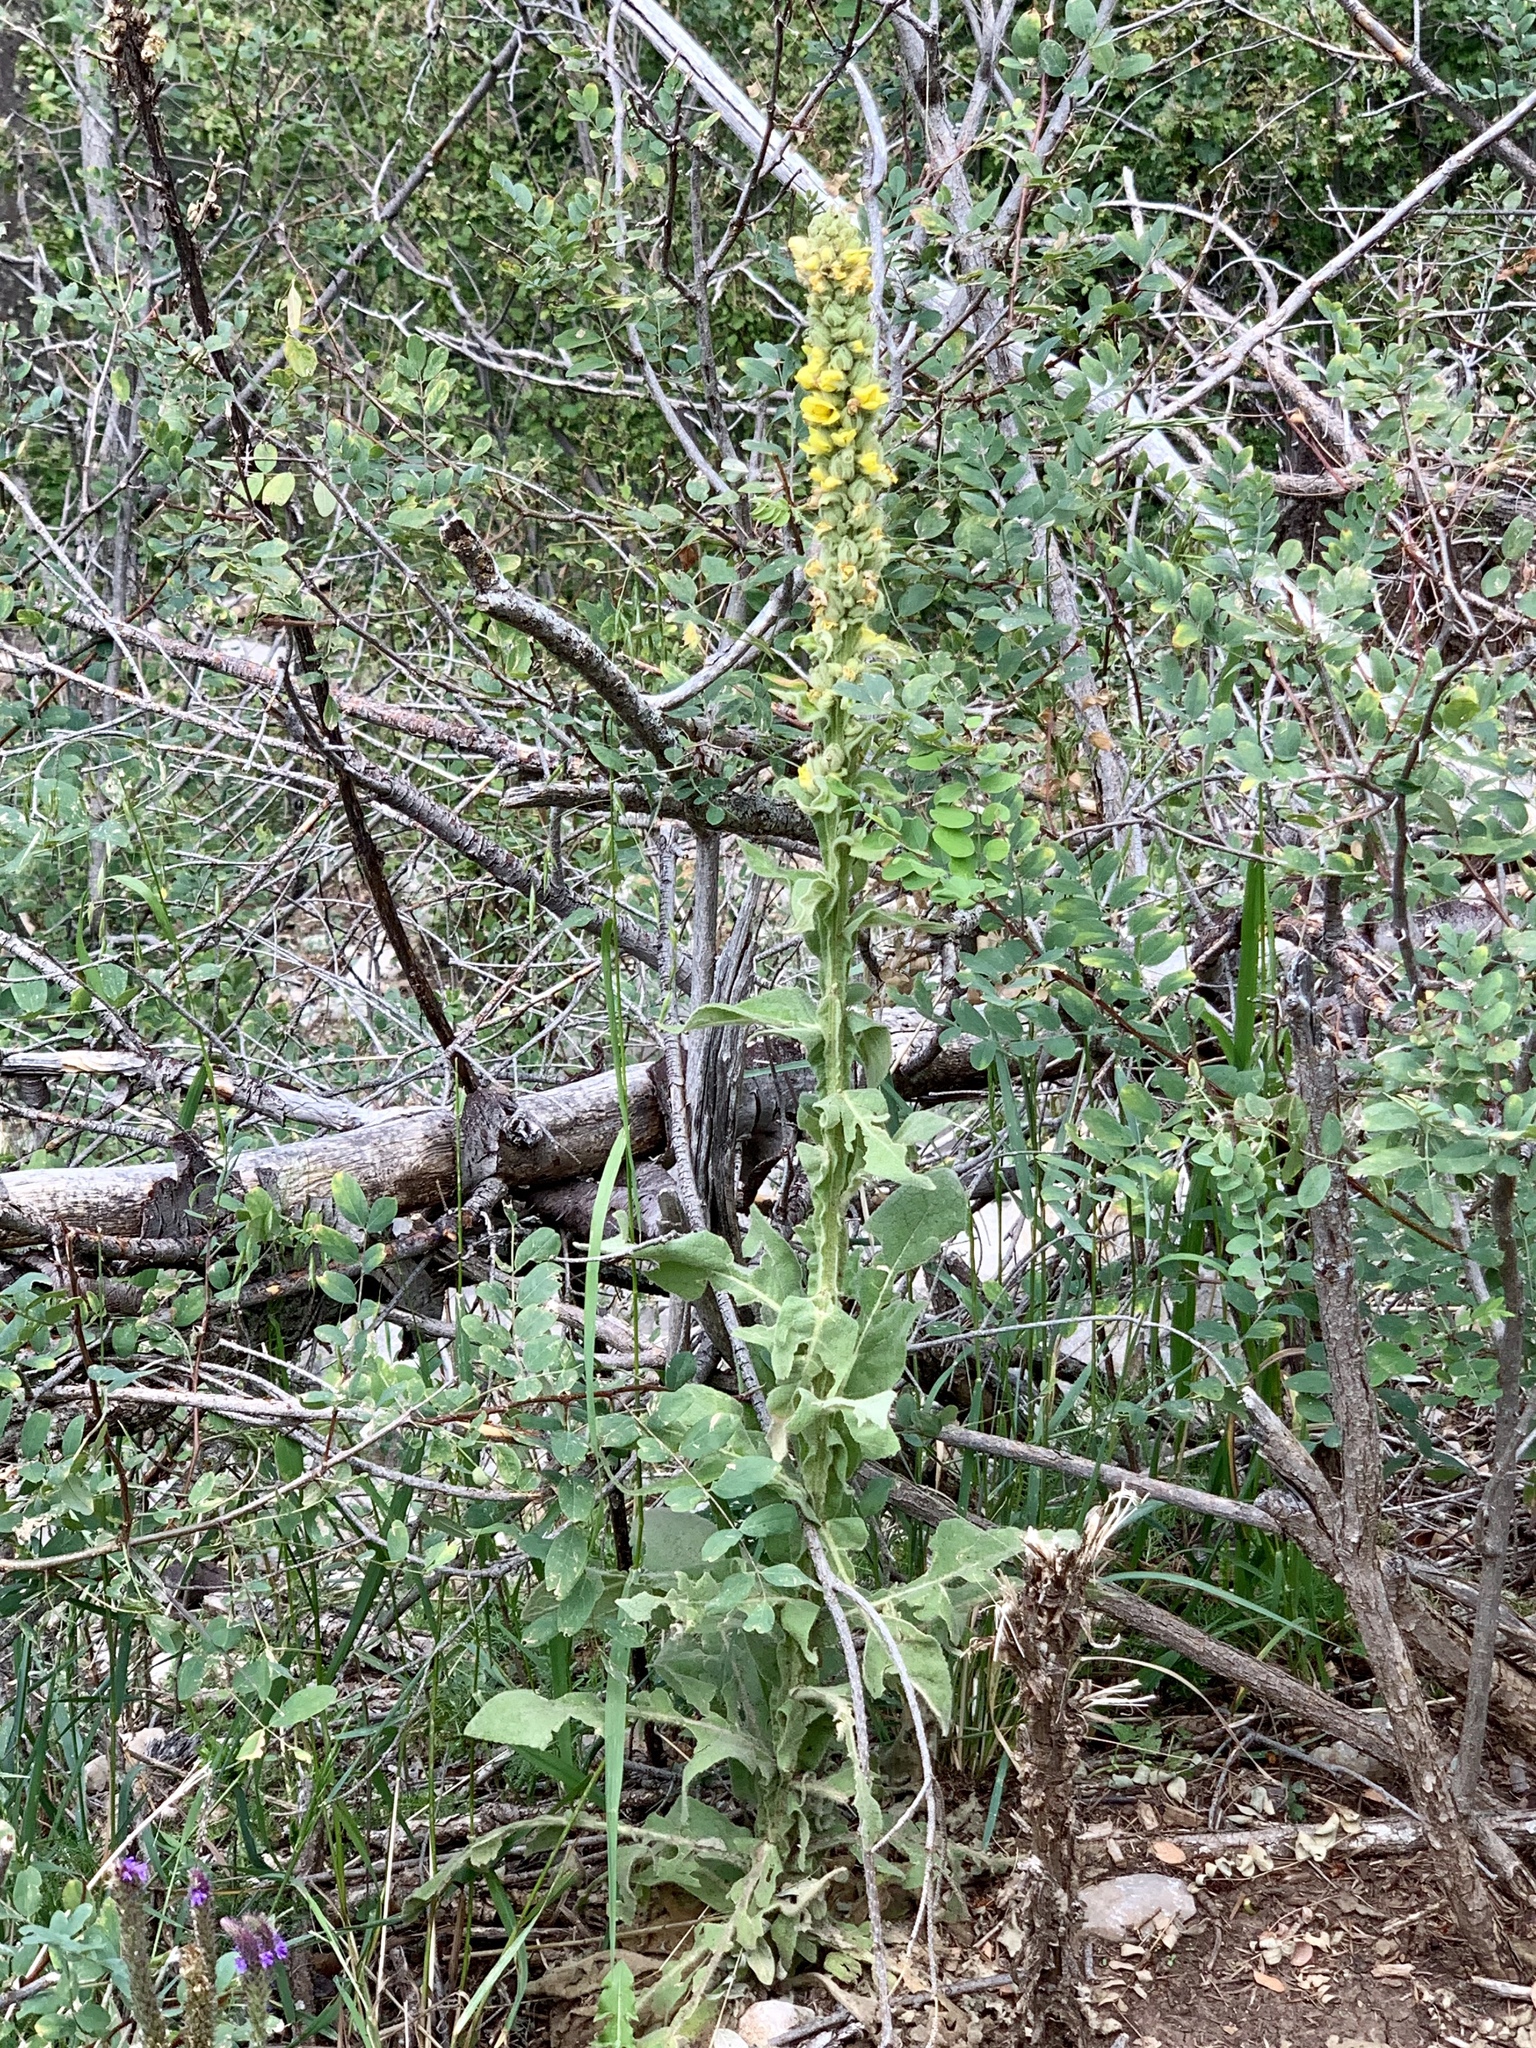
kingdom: Plantae
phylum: Tracheophyta
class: Magnoliopsida
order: Lamiales
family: Scrophulariaceae
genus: Verbascum
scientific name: Verbascum thapsus
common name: Common mullein
